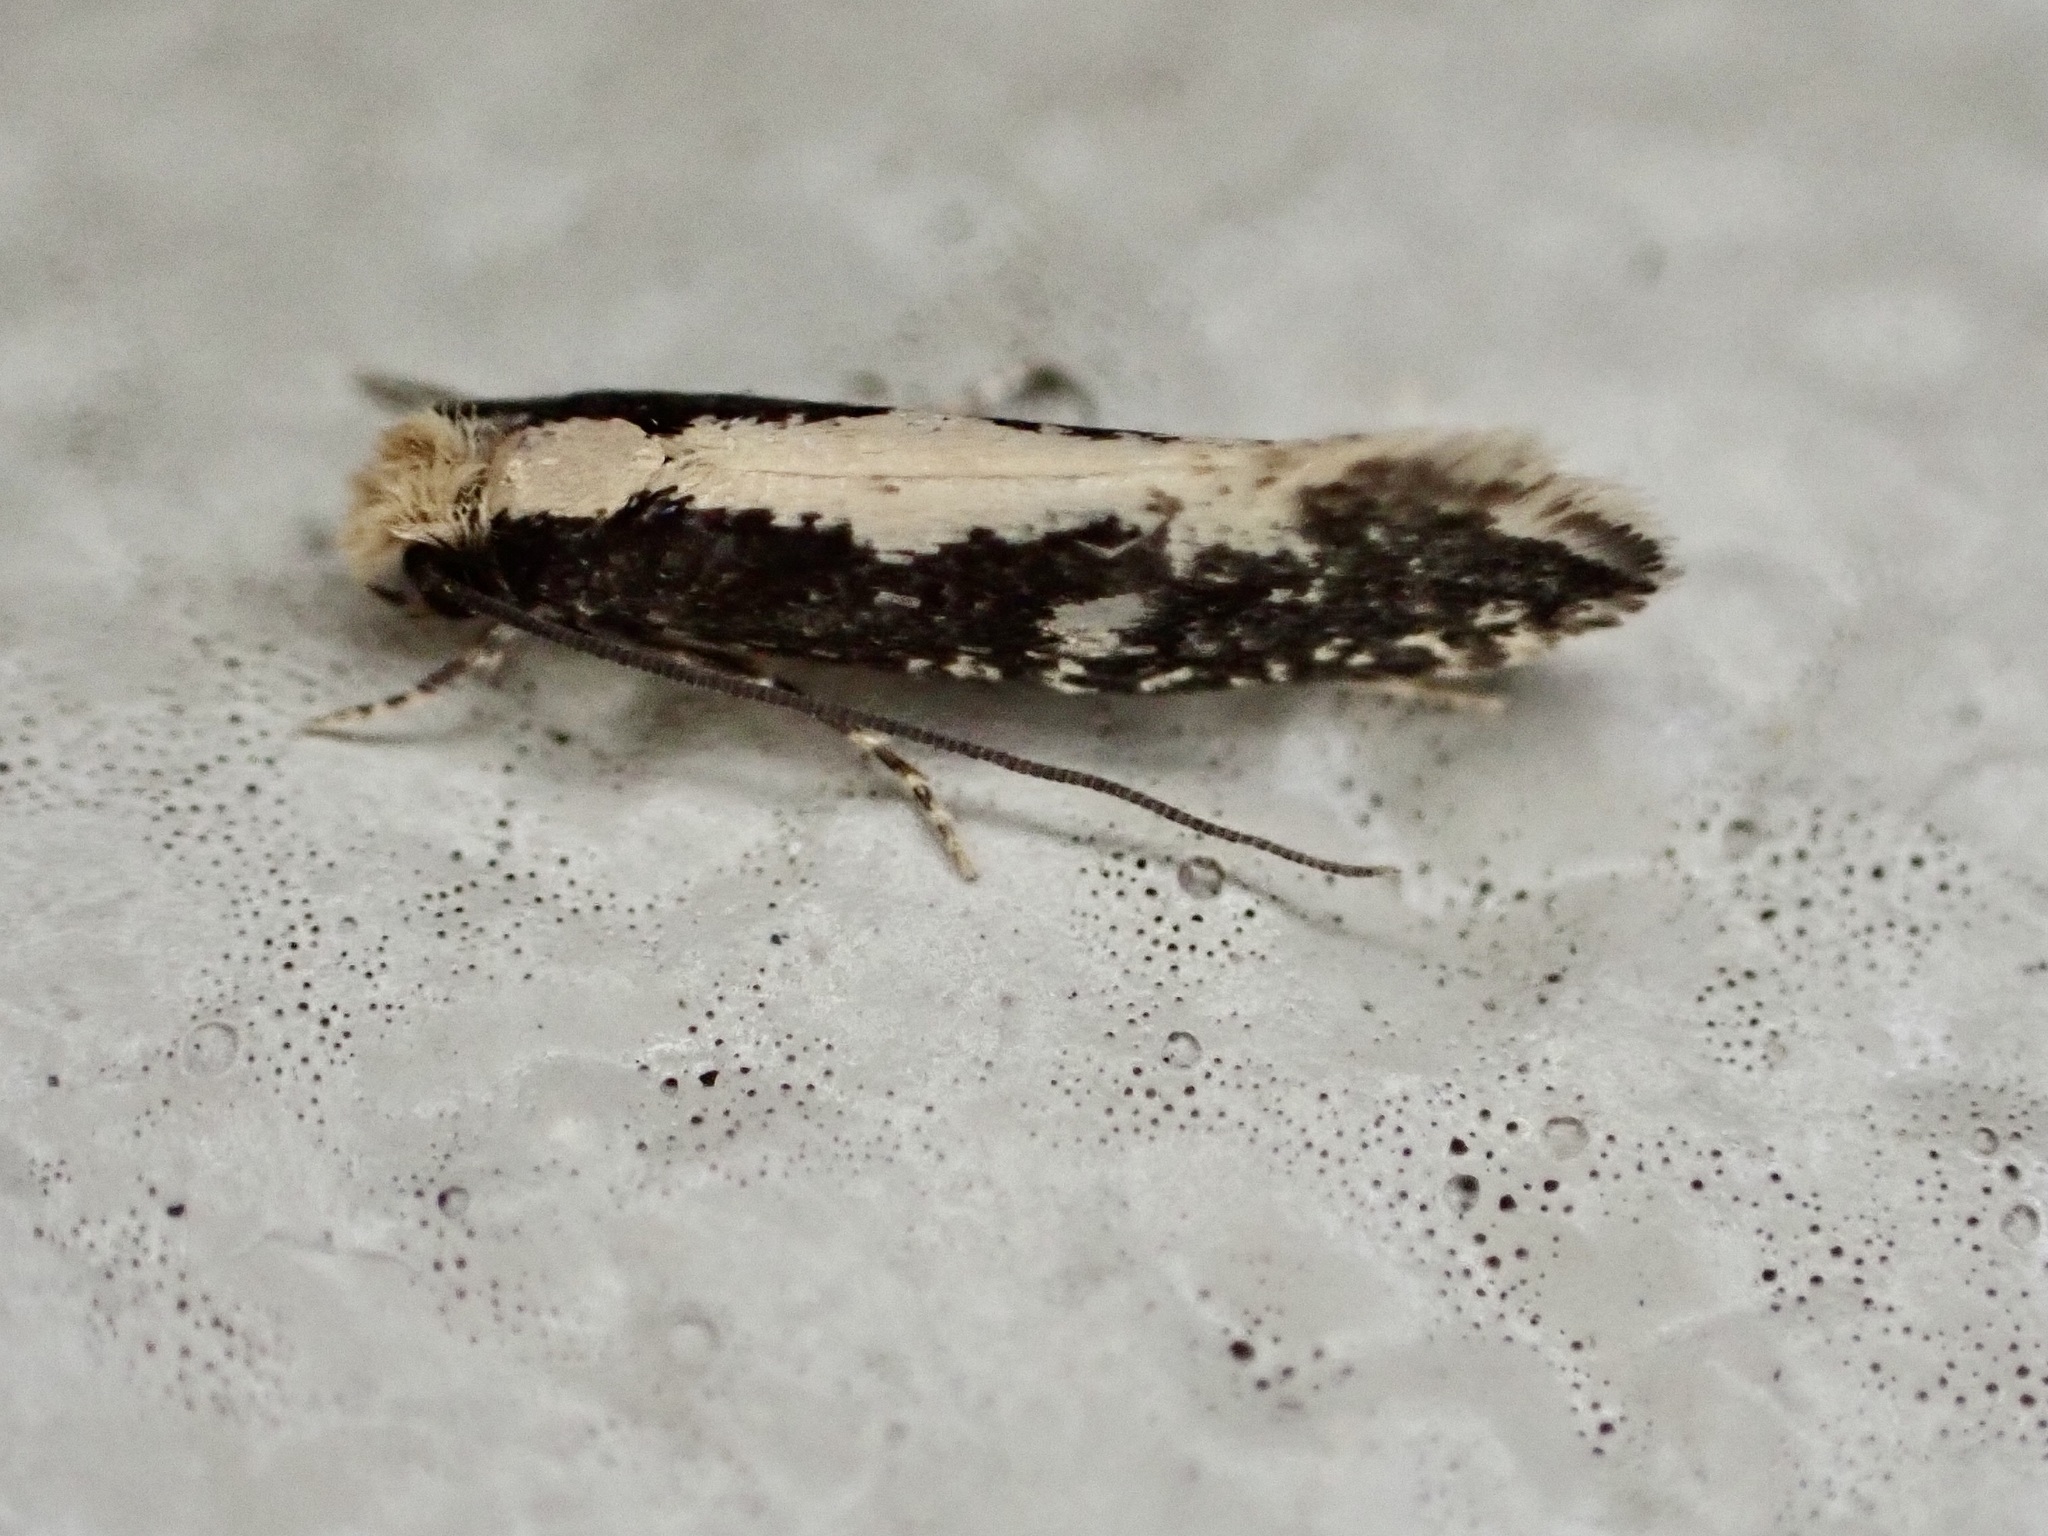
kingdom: Animalia
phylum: Arthropoda
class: Insecta
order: Lepidoptera
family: Tineidae
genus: Monopis
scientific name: Monopis crocicapitella
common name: Moth
